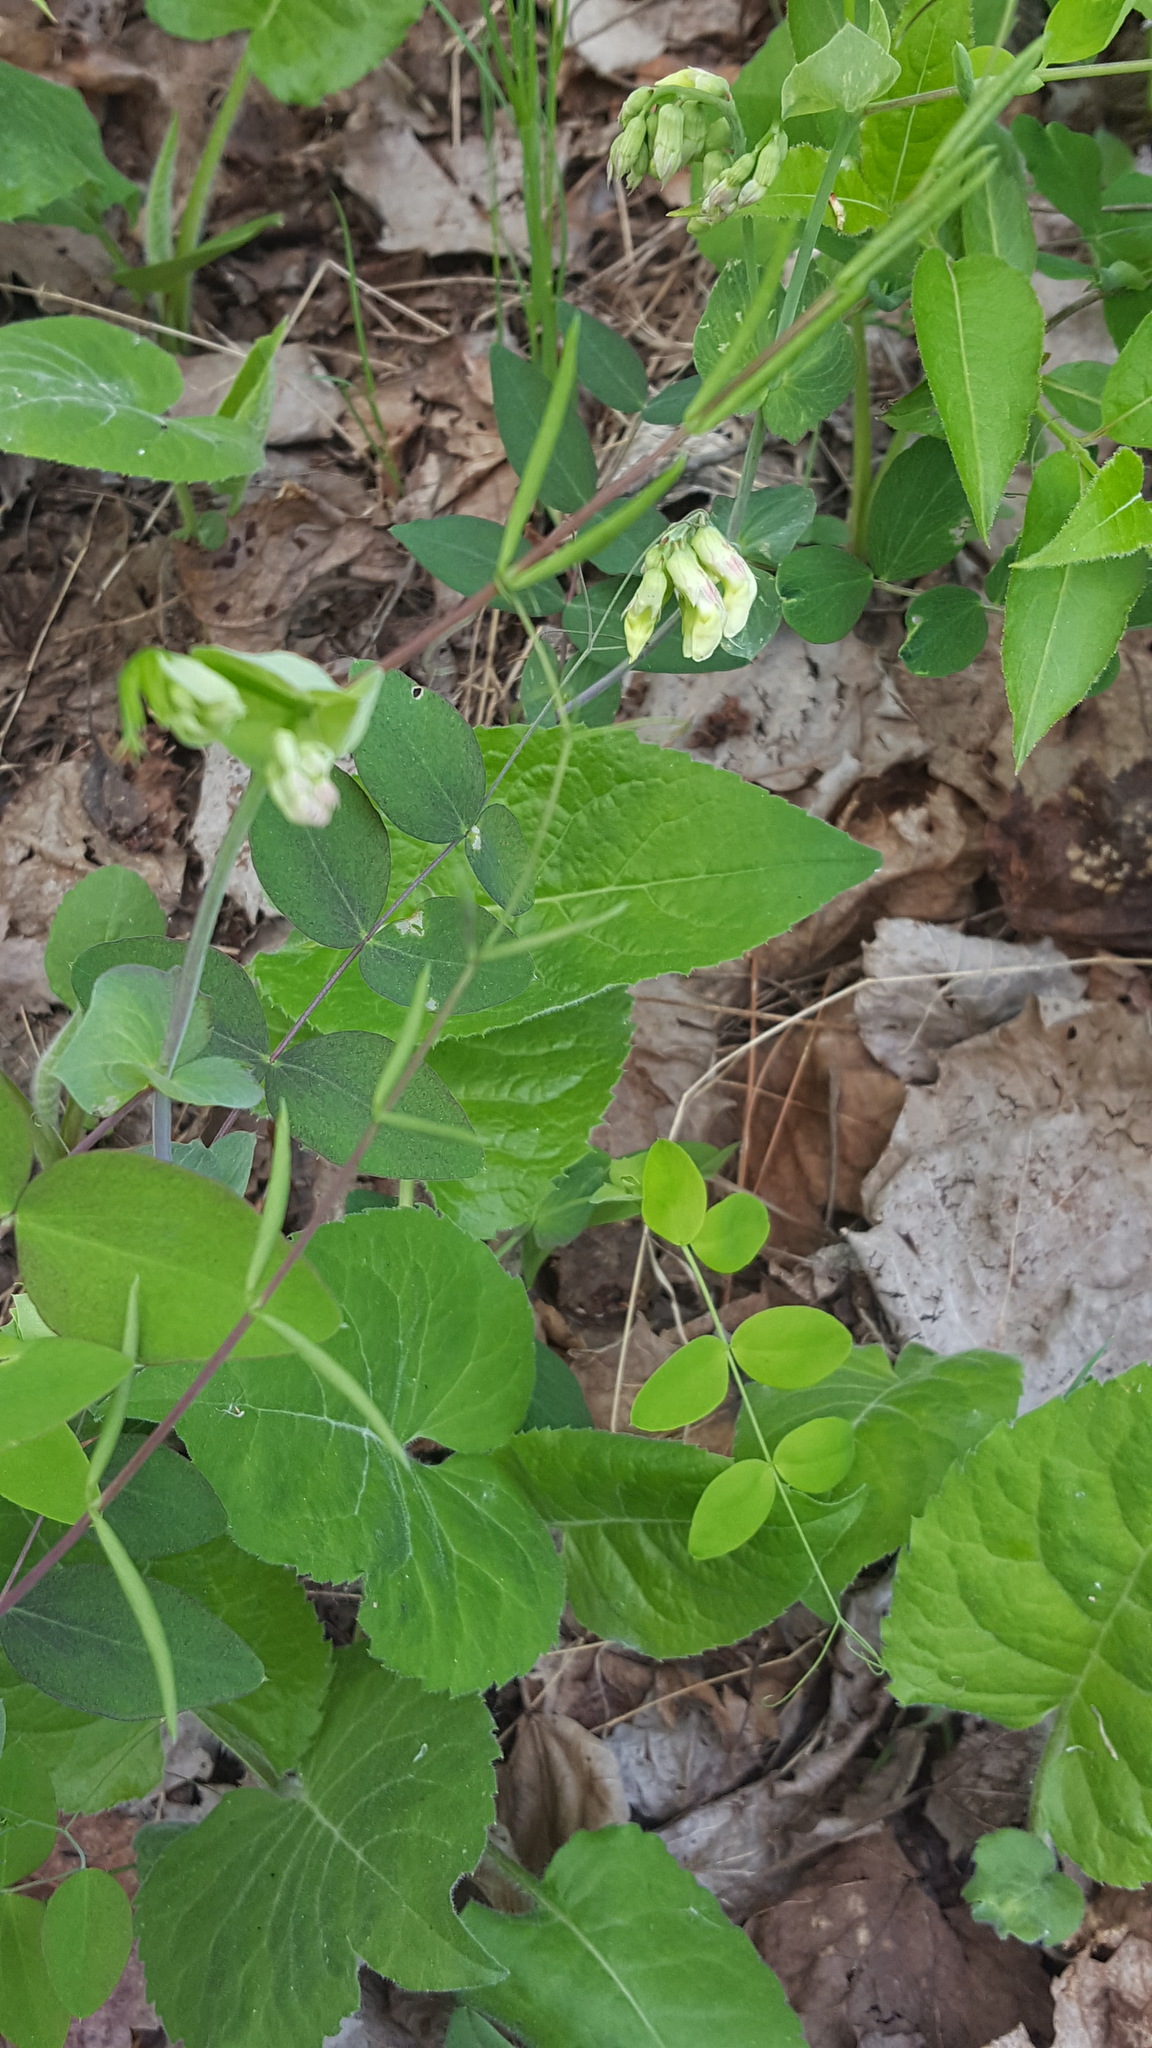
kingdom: Plantae
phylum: Tracheophyta
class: Magnoliopsida
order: Fabales
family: Fabaceae
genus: Lathyrus
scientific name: Lathyrus ochroleucus
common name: Pale vetchling
